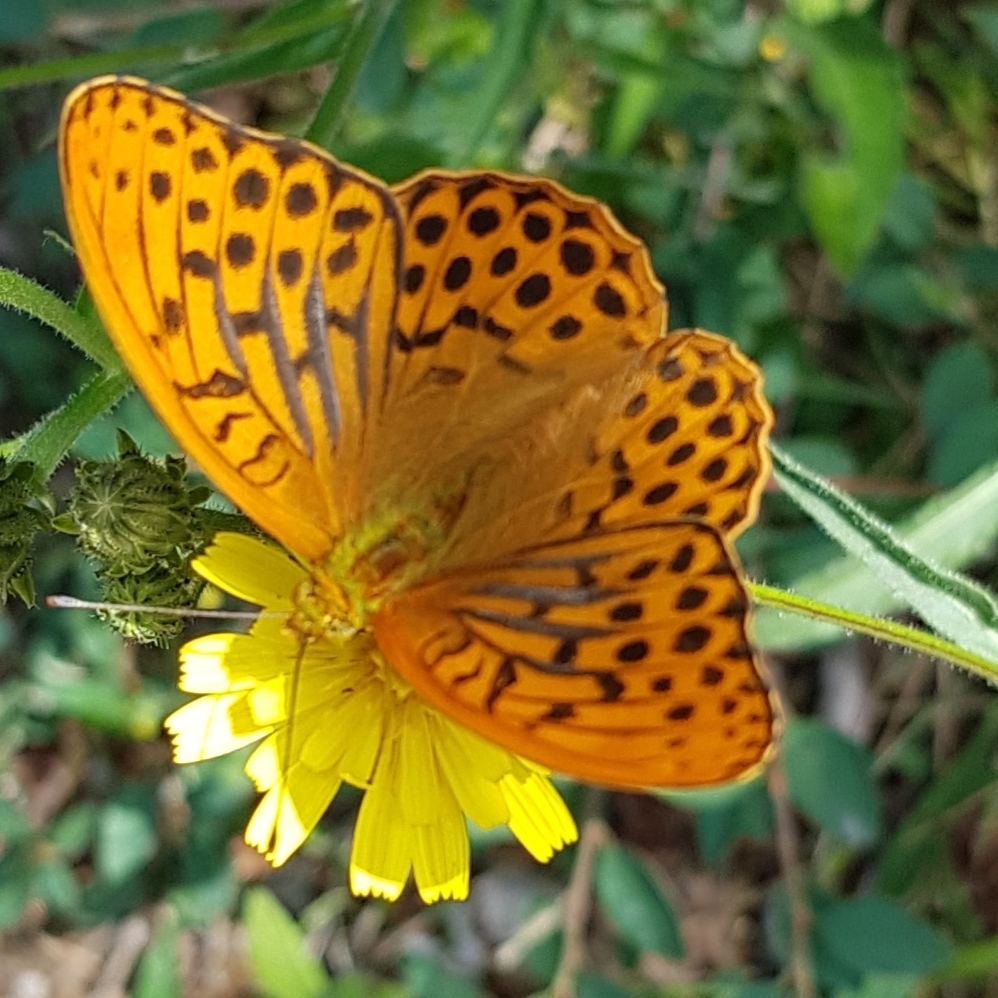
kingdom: Animalia
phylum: Arthropoda
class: Insecta
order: Lepidoptera
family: Nymphalidae
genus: Argynnis
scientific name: Argynnis paphia
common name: Silver-washed fritillary
